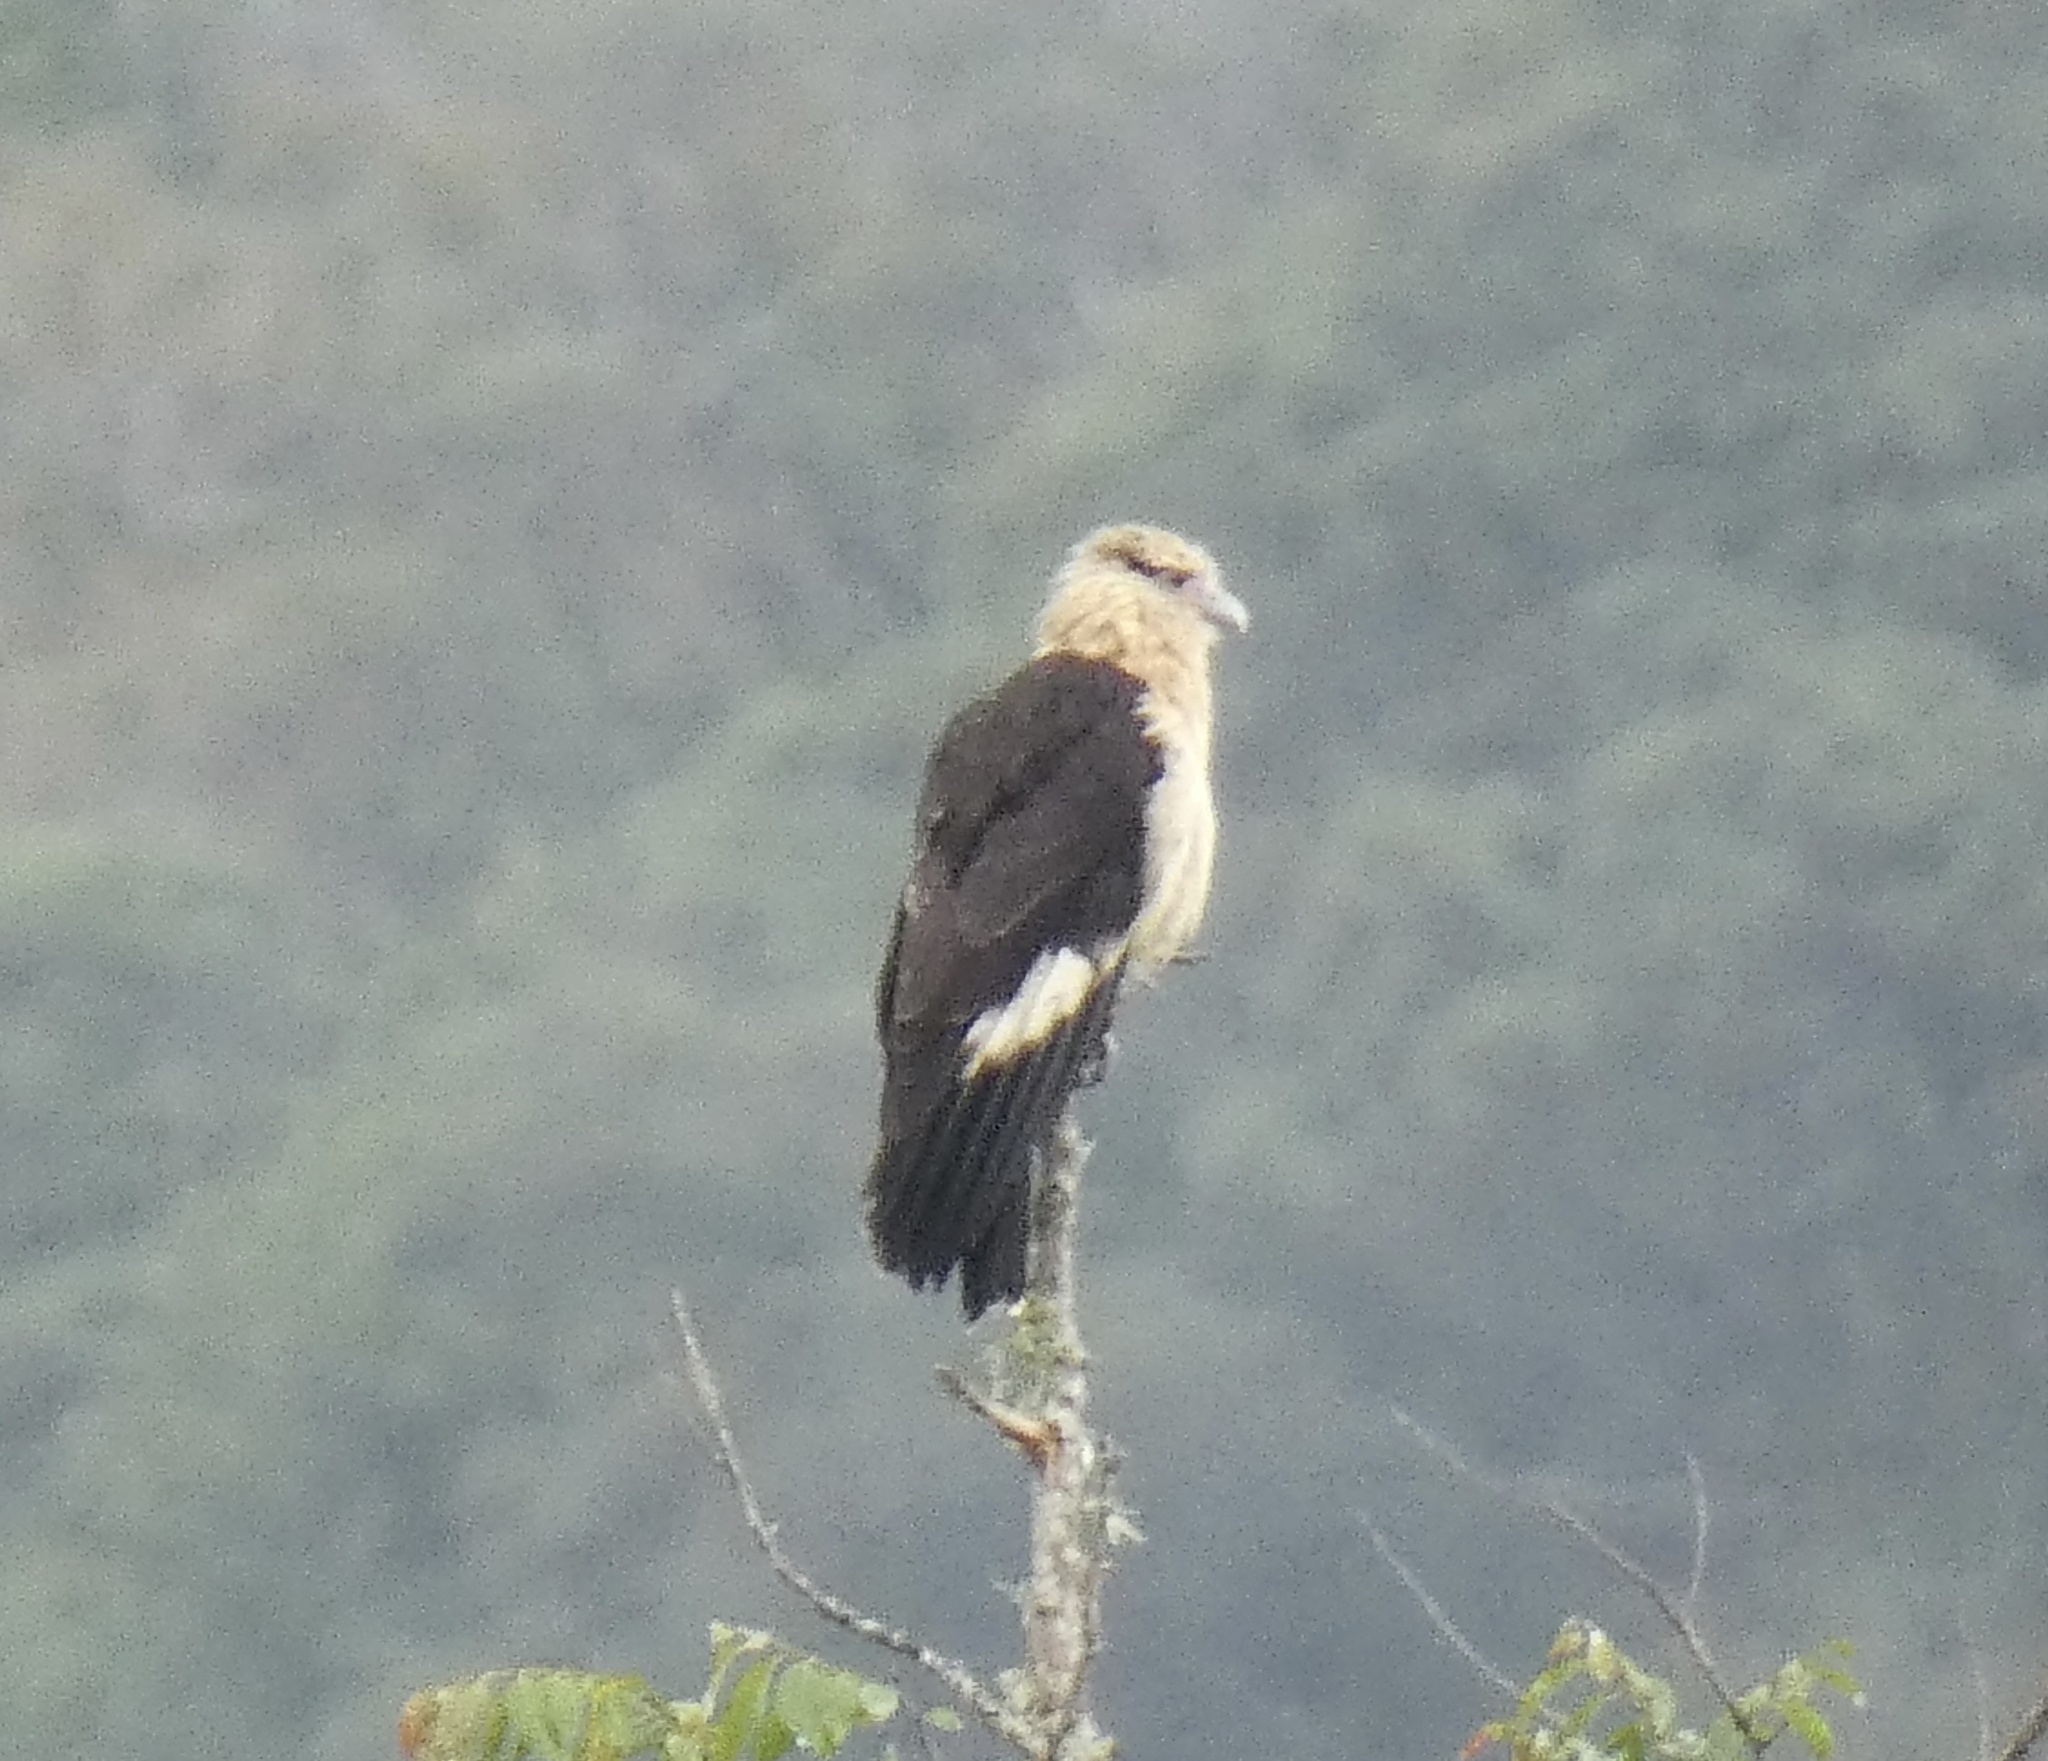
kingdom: Animalia
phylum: Chordata
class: Aves
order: Falconiformes
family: Falconidae
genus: Daptrius
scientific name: Daptrius
